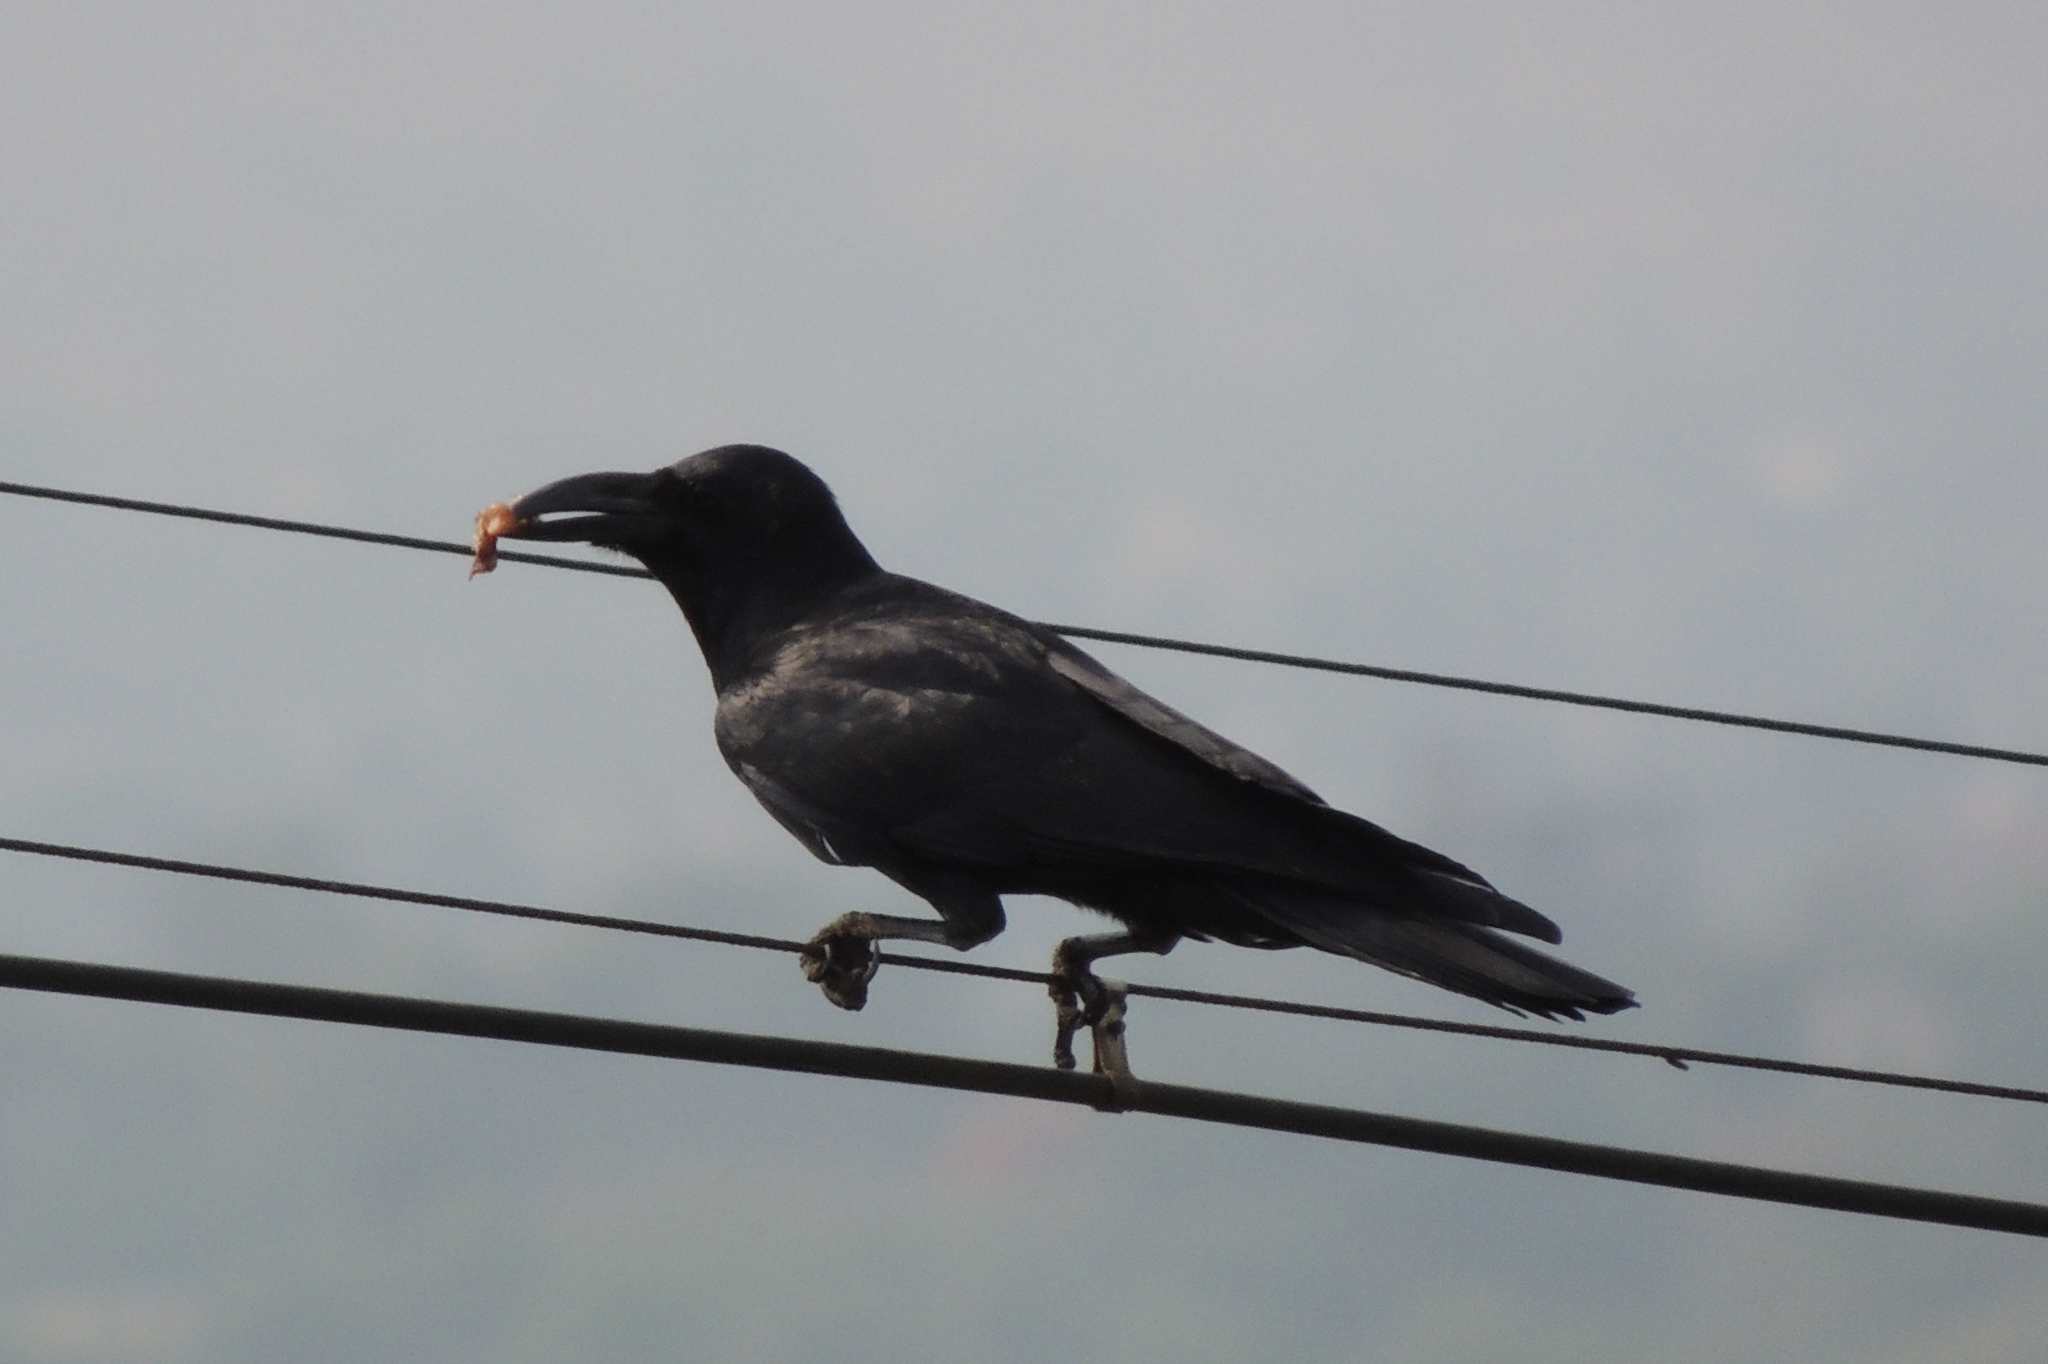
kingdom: Animalia
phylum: Chordata
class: Aves
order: Passeriformes
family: Corvidae
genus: Corvus
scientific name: Corvus macrorhynchos
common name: Large-billed crow
